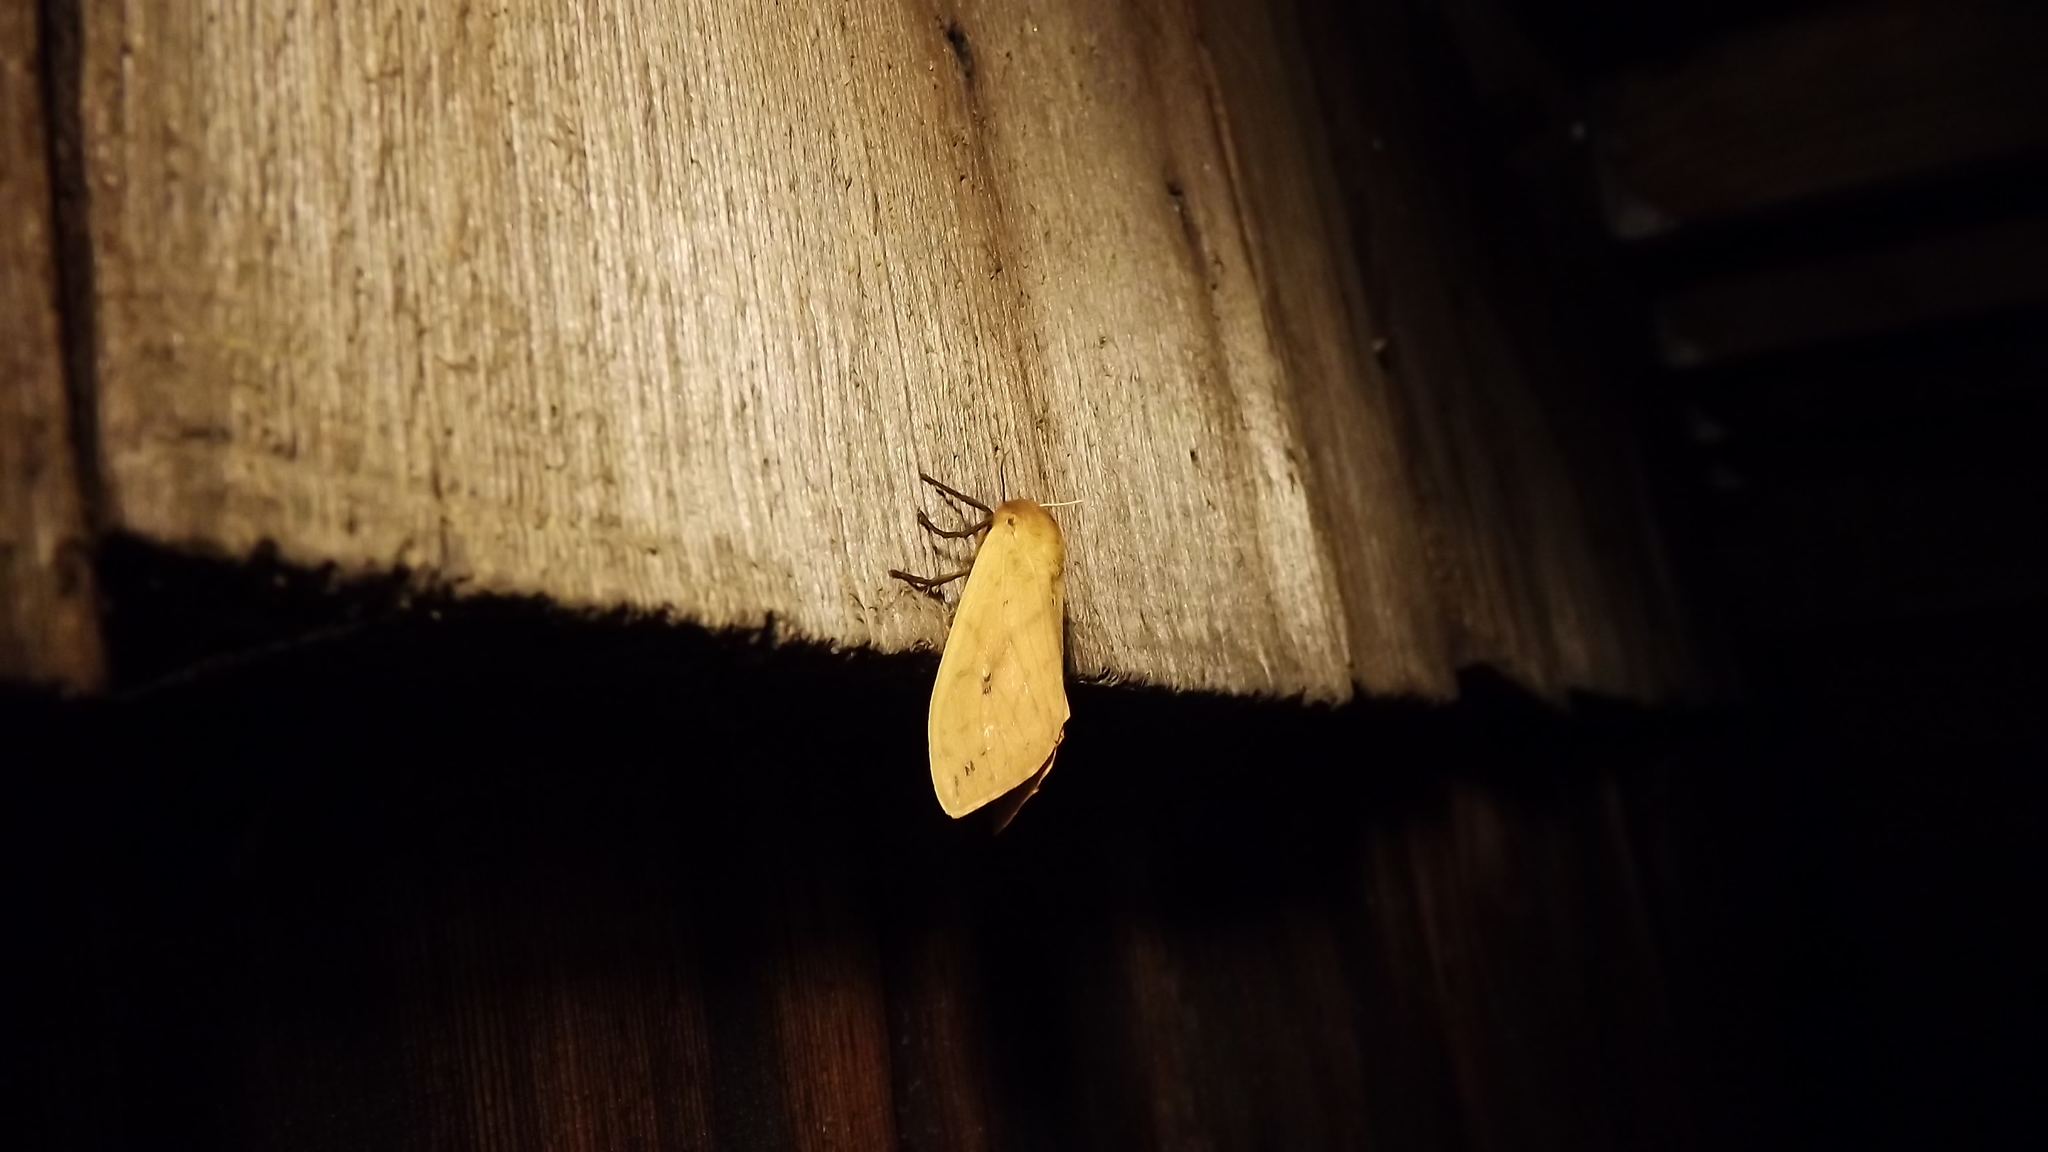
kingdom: Animalia
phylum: Arthropoda
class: Insecta
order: Lepidoptera
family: Erebidae
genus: Pyrrharctia
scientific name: Pyrrharctia isabella
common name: Isabella tiger moth
